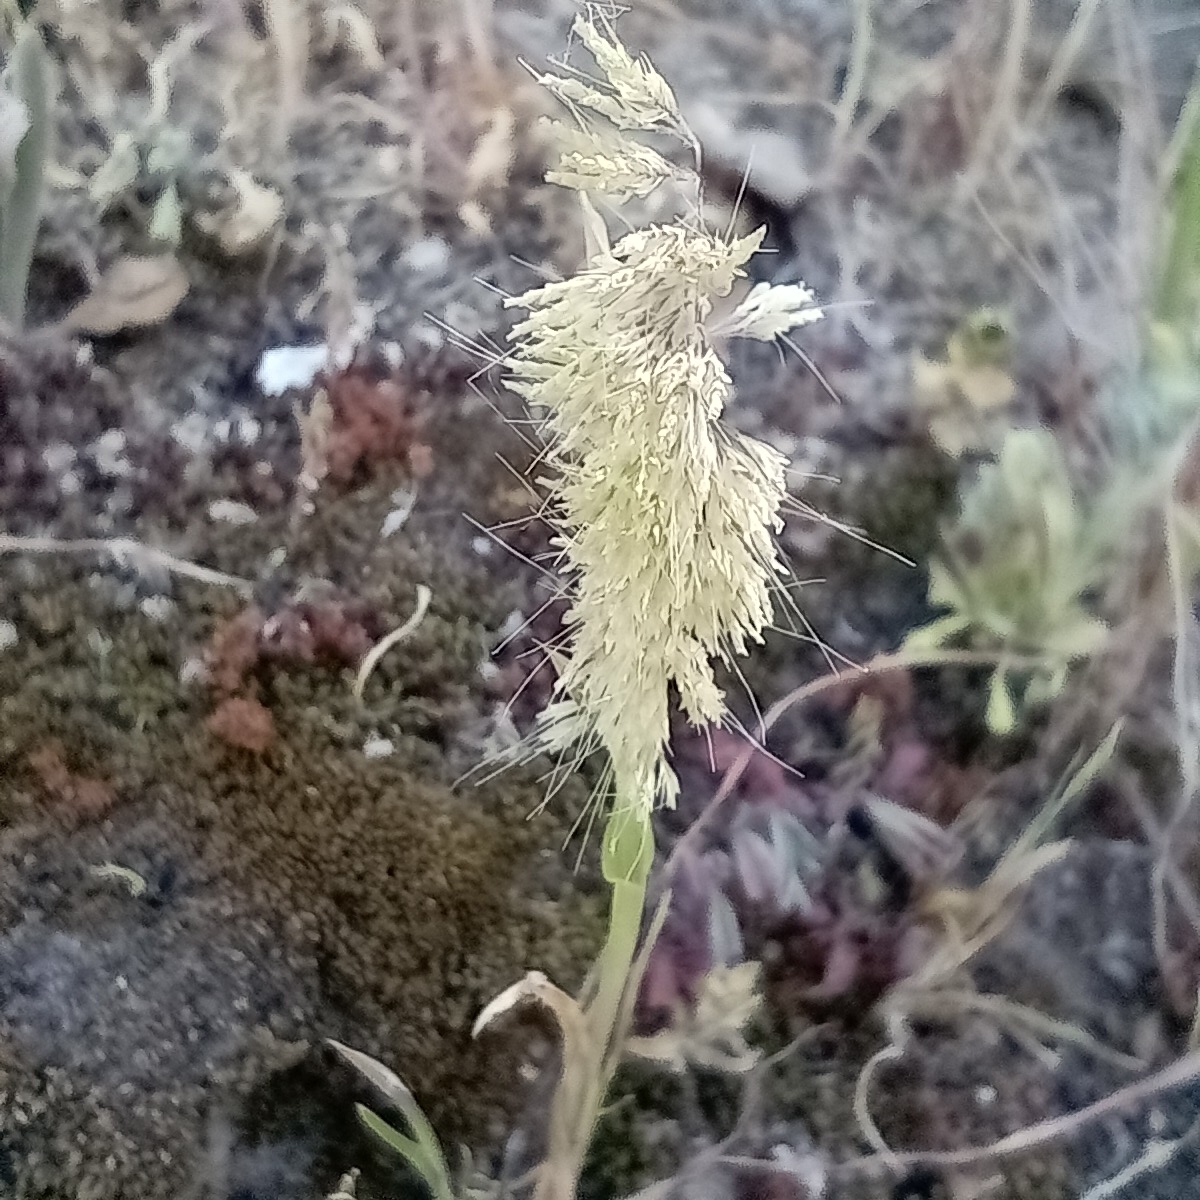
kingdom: Plantae
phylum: Tracheophyta
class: Liliopsida
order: Poales
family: Poaceae
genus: Lamarckia
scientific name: Lamarckia aurea
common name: Golden dog's-tail
